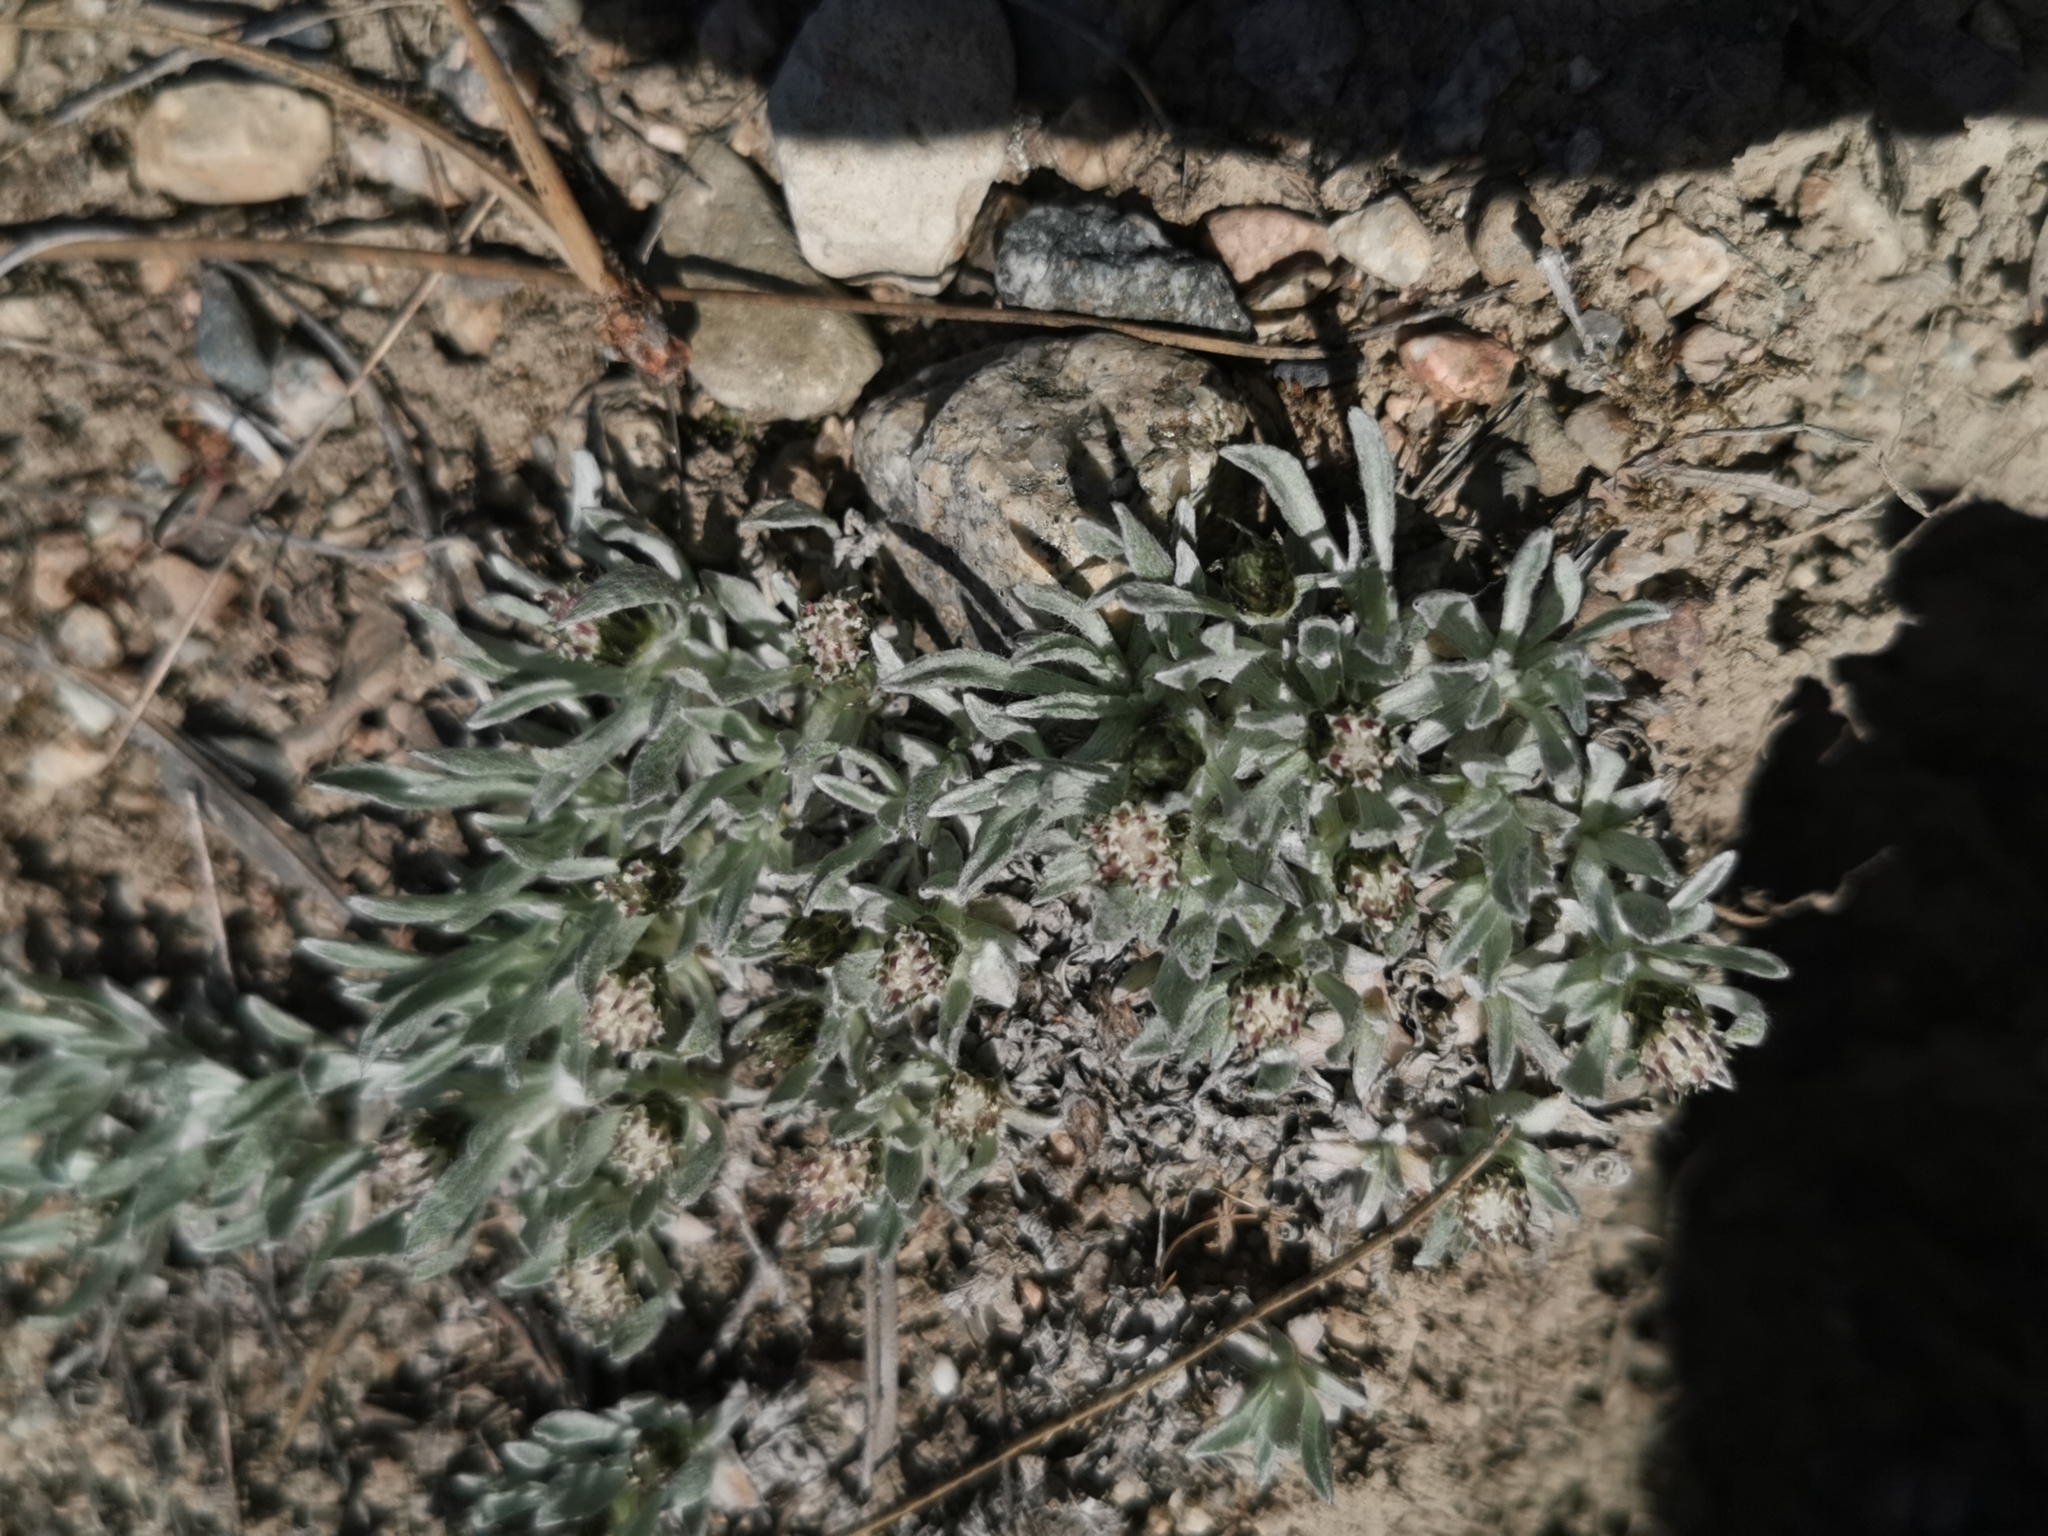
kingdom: Plantae
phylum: Tracheophyta
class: Magnoliopsida
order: Asterales
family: Asteraceae
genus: Antennaria
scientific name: Antennaria dimorpha
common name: Cushion pussytoes
